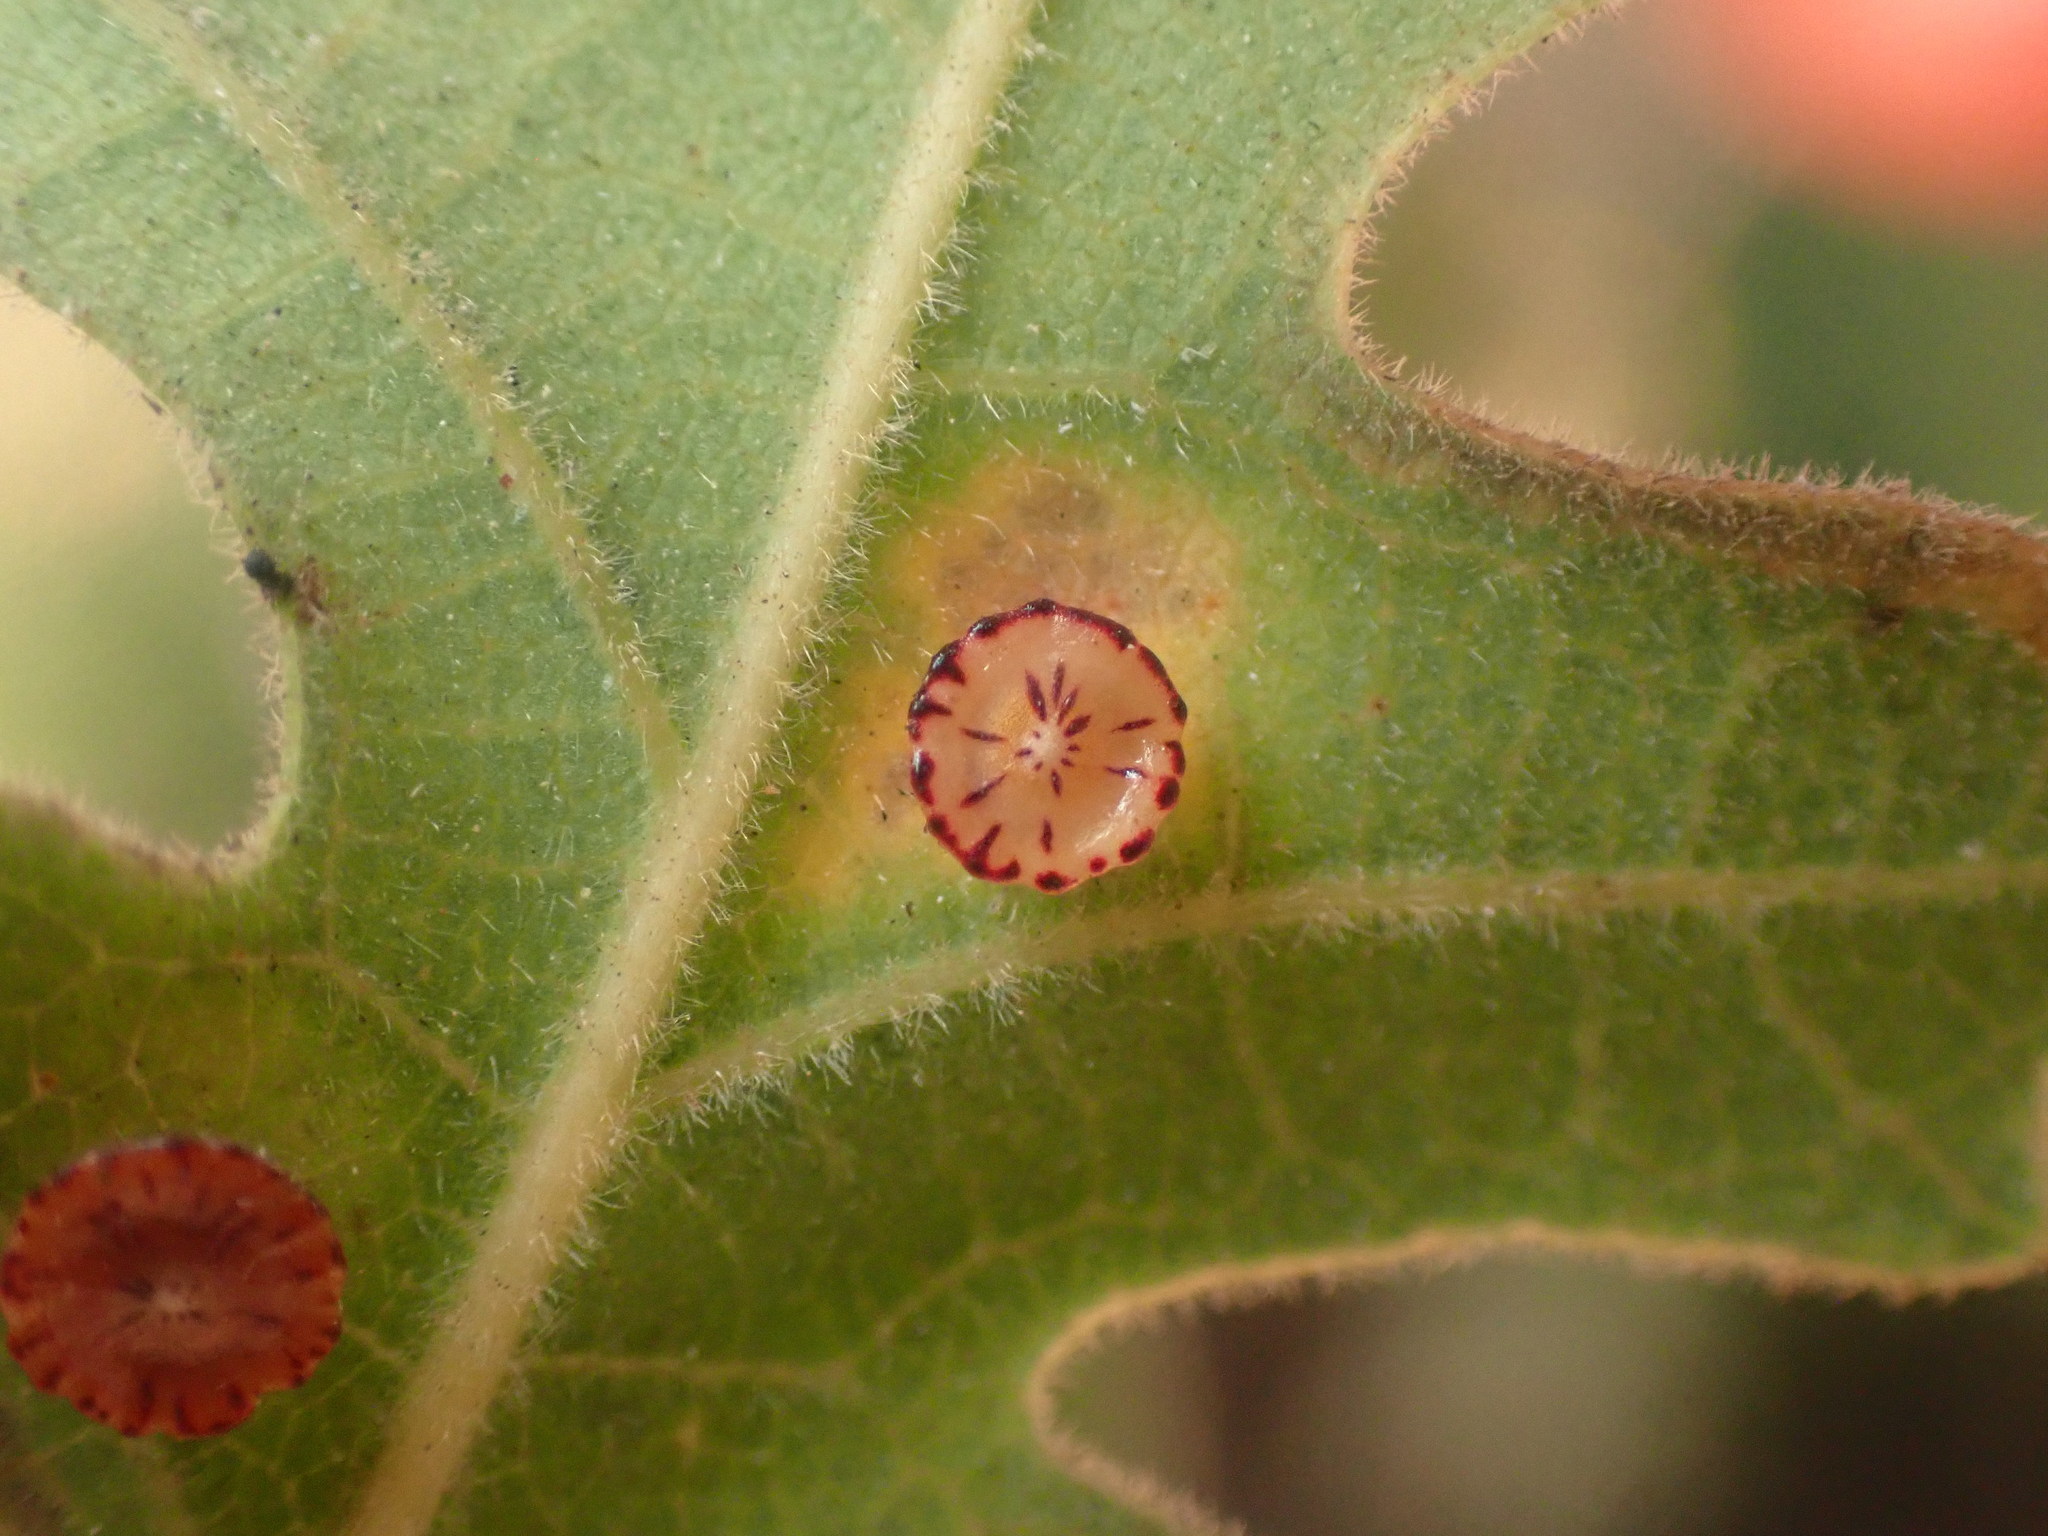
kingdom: Animalia
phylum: Arthropoda
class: Insecta
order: Hymenoptera
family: Cynipidae
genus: Andricus
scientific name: Andricus
